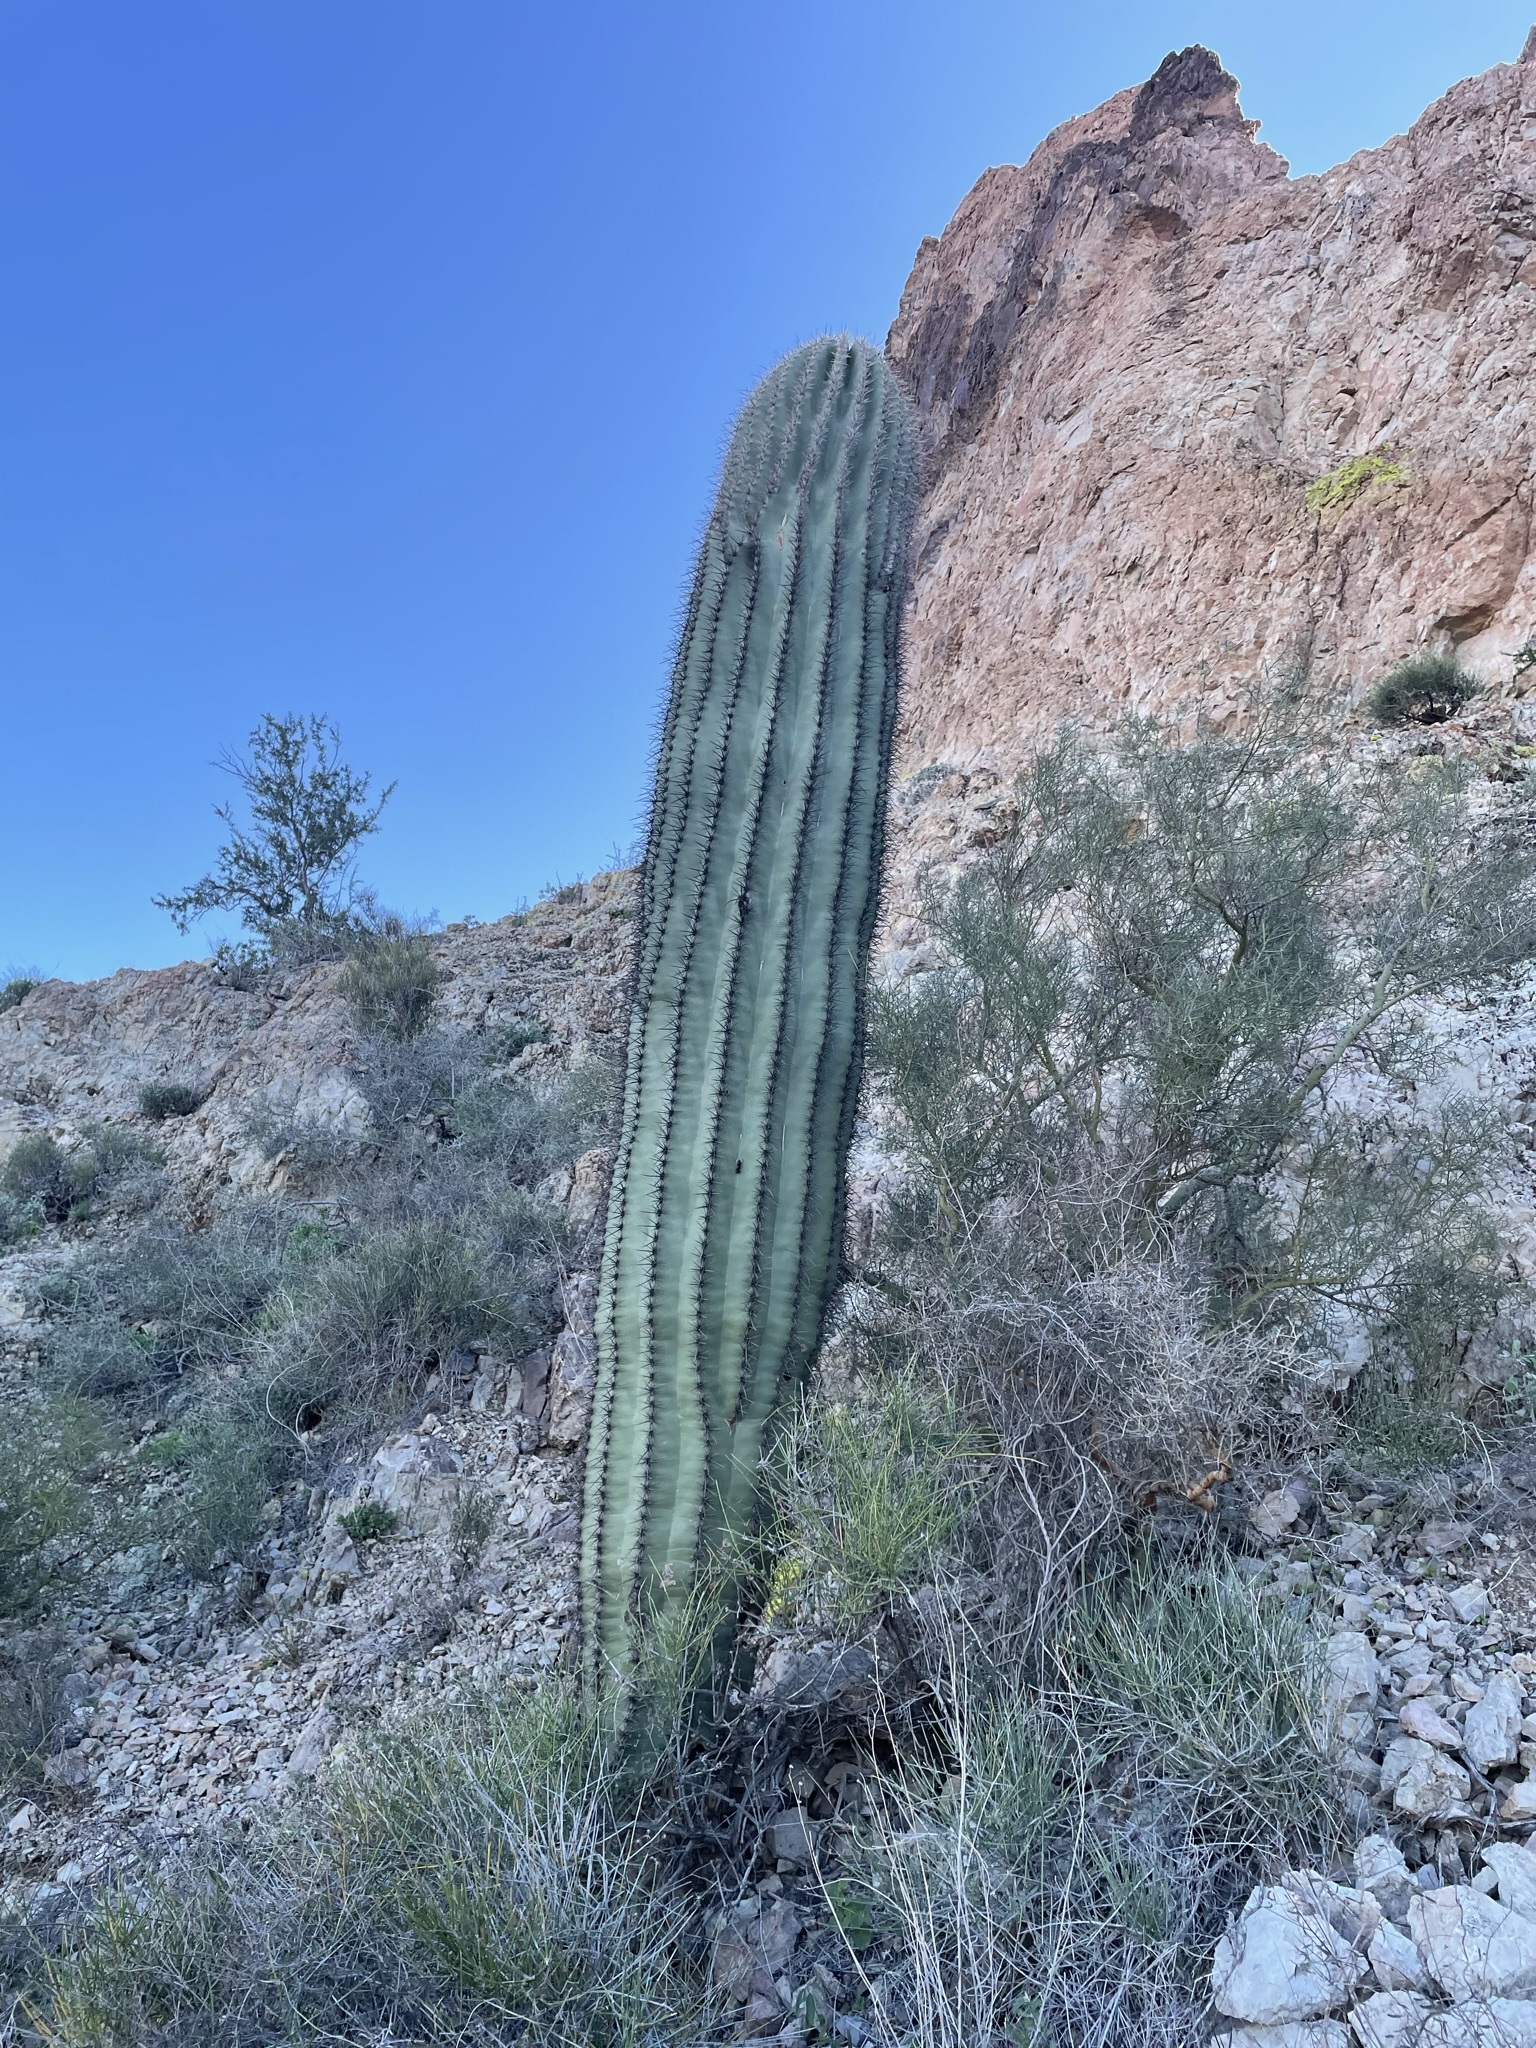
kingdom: Plantae
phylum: Tracheophyta
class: Magnoliopsida
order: Caryophyllales
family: Cactaceae
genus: Carnegiea
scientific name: Carnegiea gigantea
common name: Saguaro
